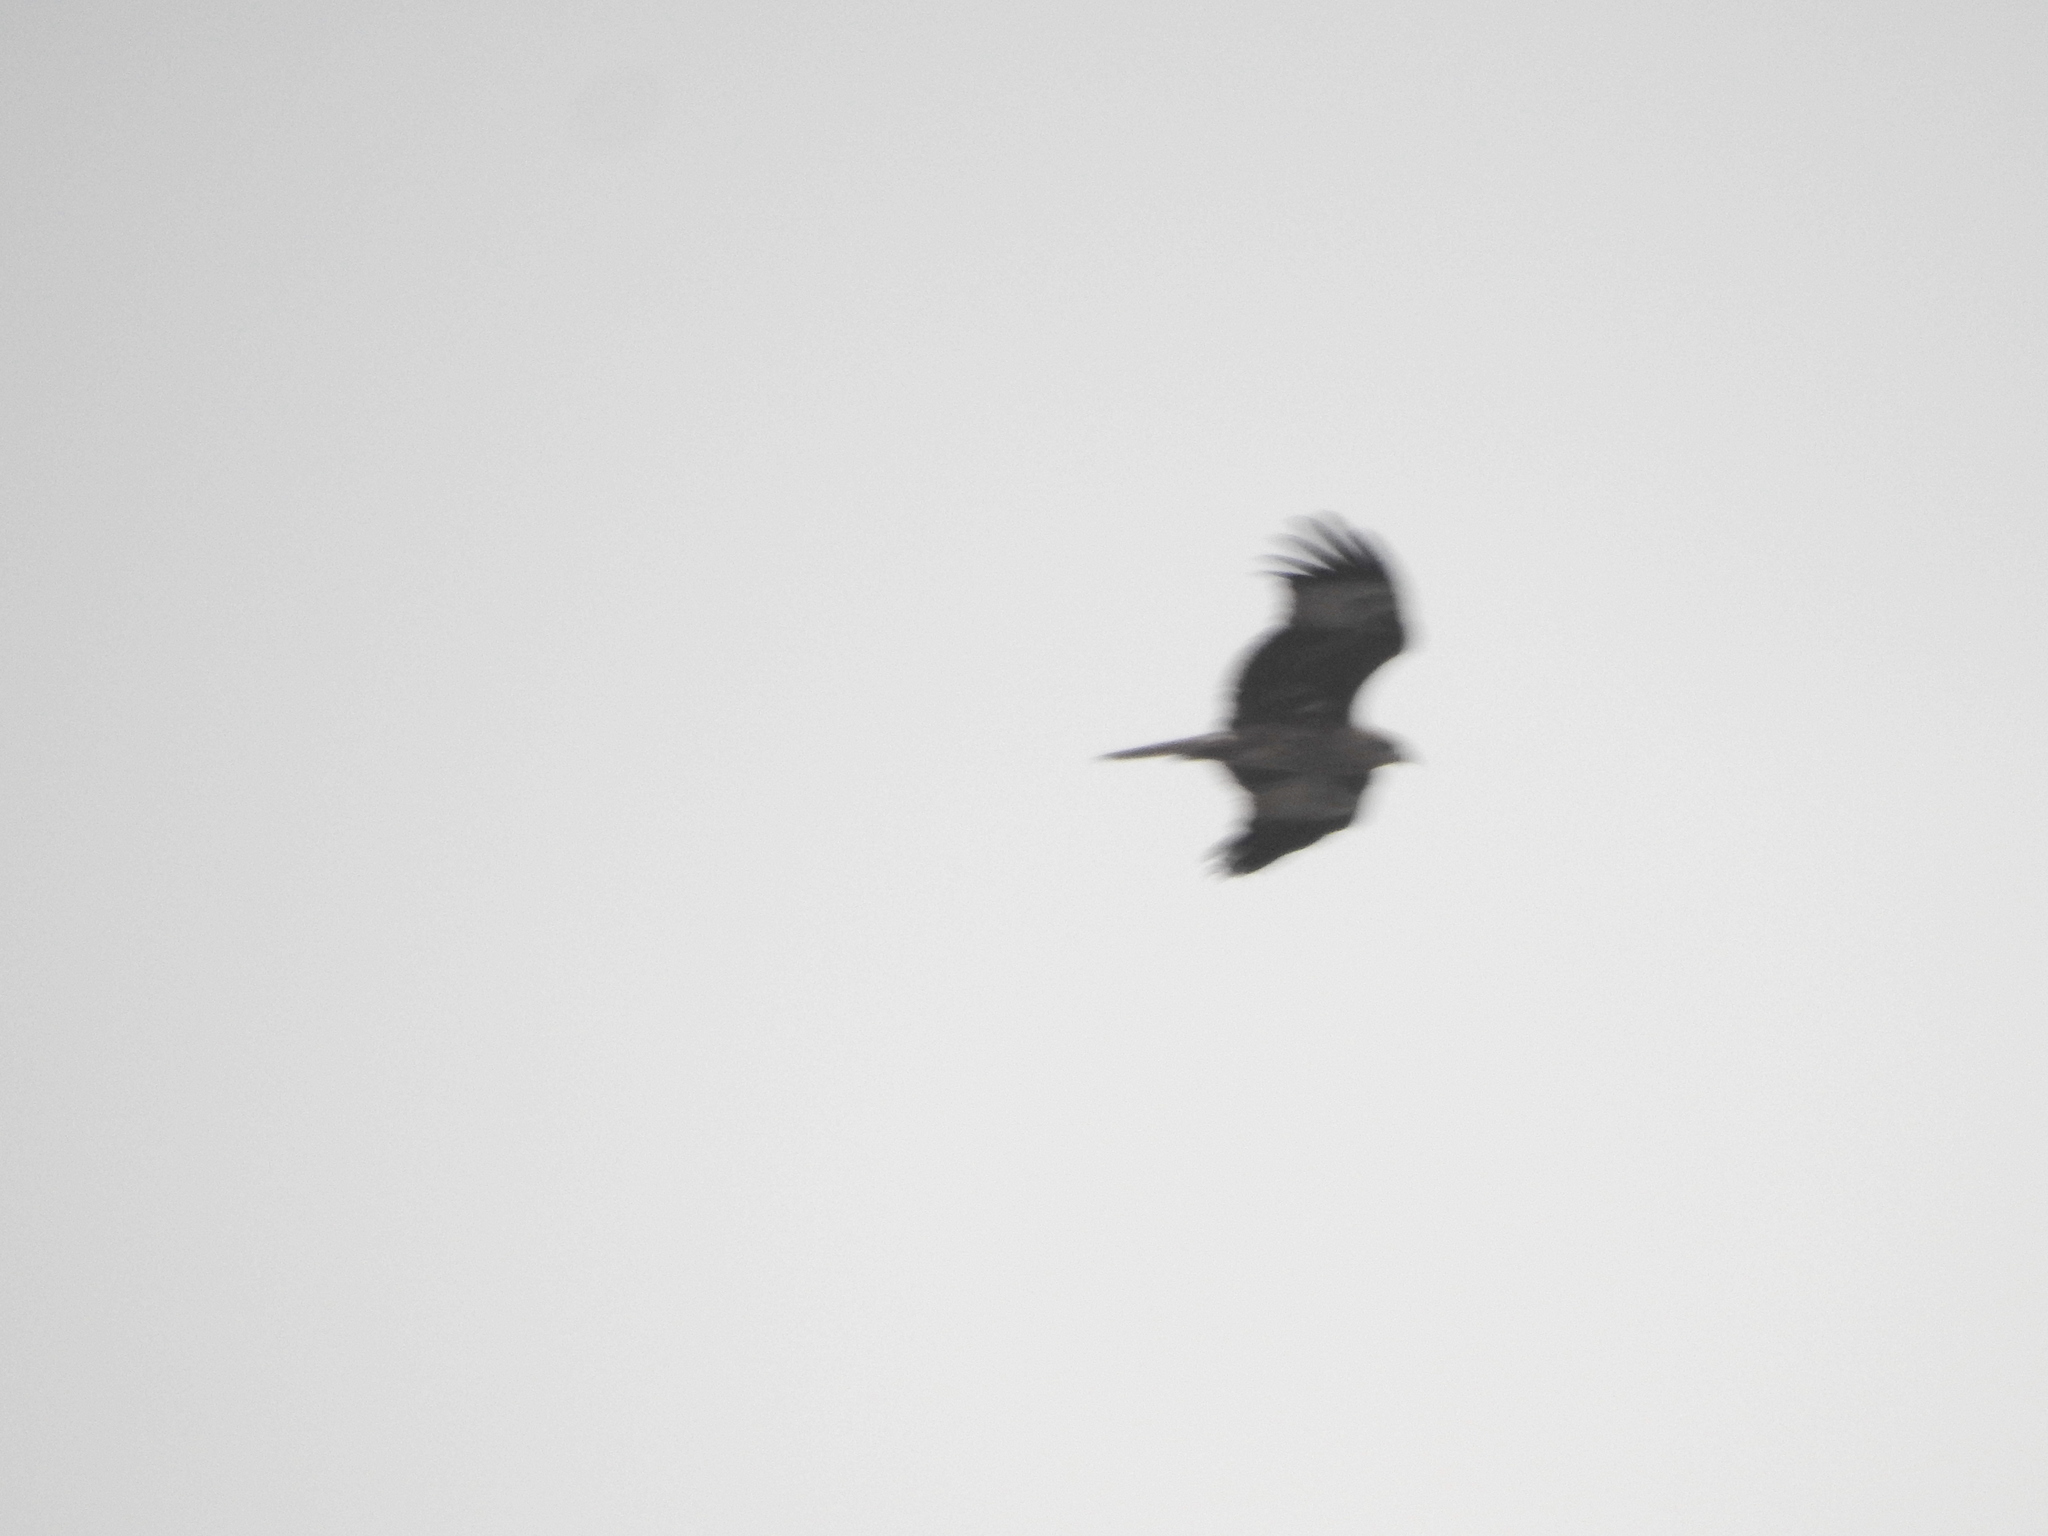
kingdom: Animalia
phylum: Chordata
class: Aves
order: Accipitriformes
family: Accipitridae
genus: Haliastur
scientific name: Haliastur indus
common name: Brahminy kite
